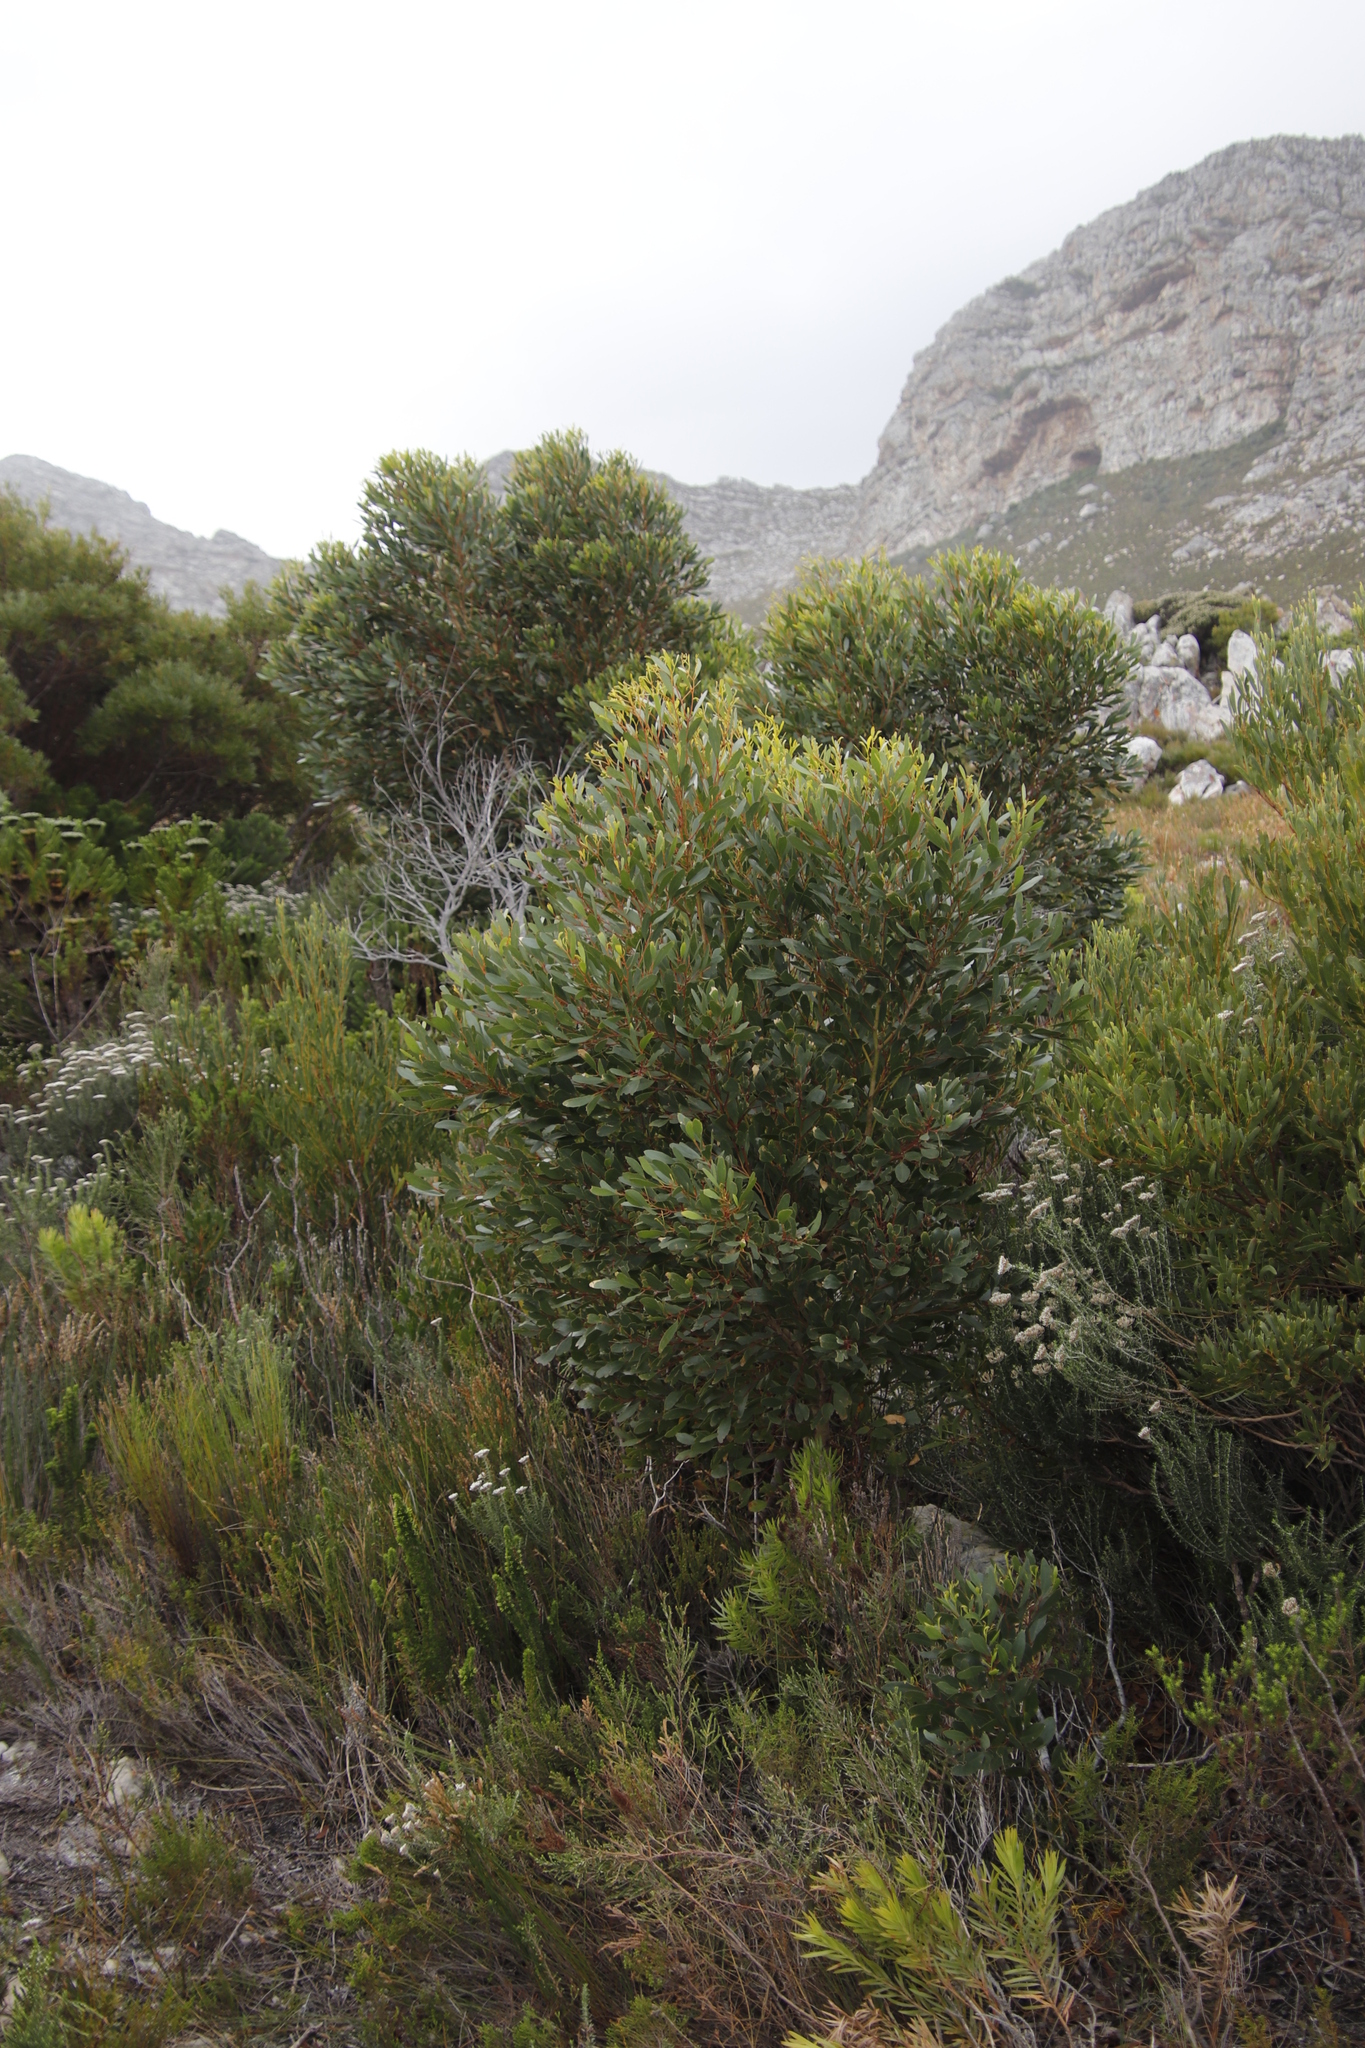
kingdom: Plantae
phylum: Tracheophyta
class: Magnoliopsida
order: Myrtales
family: Myrtaceae
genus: Eucalyptus
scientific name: Eucalyptus conferruminata
